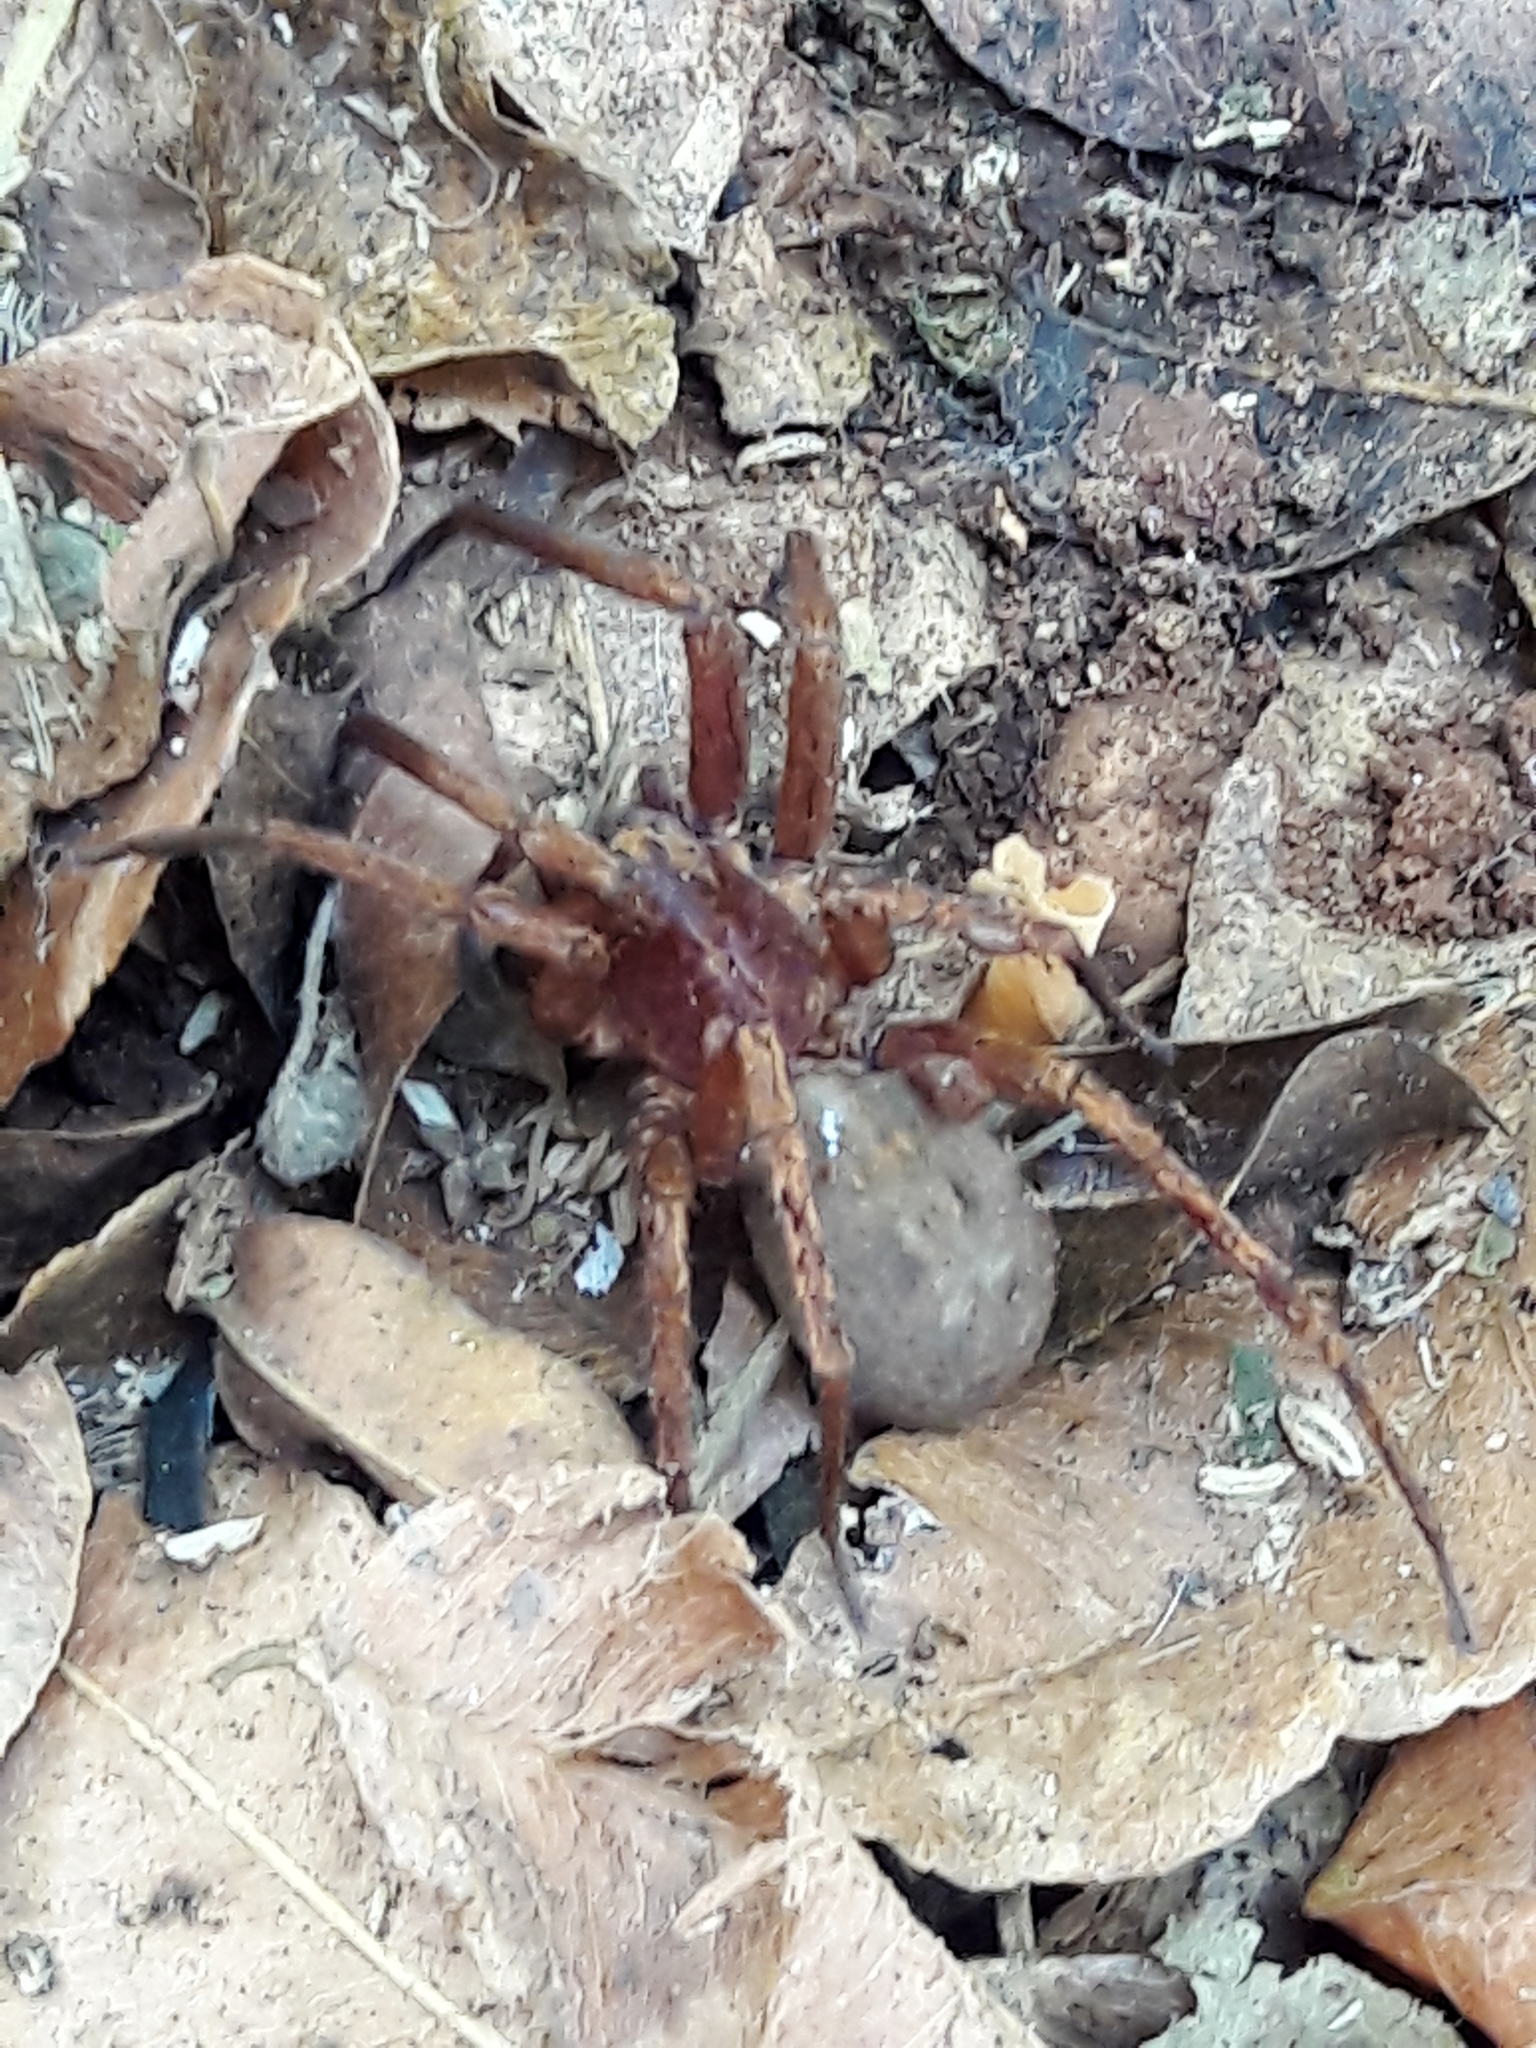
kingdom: Animalia
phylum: Arthropoda
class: Arachnida
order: Araneae
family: Ctenidae
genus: Isoctenus
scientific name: Isoctenus coxalis
